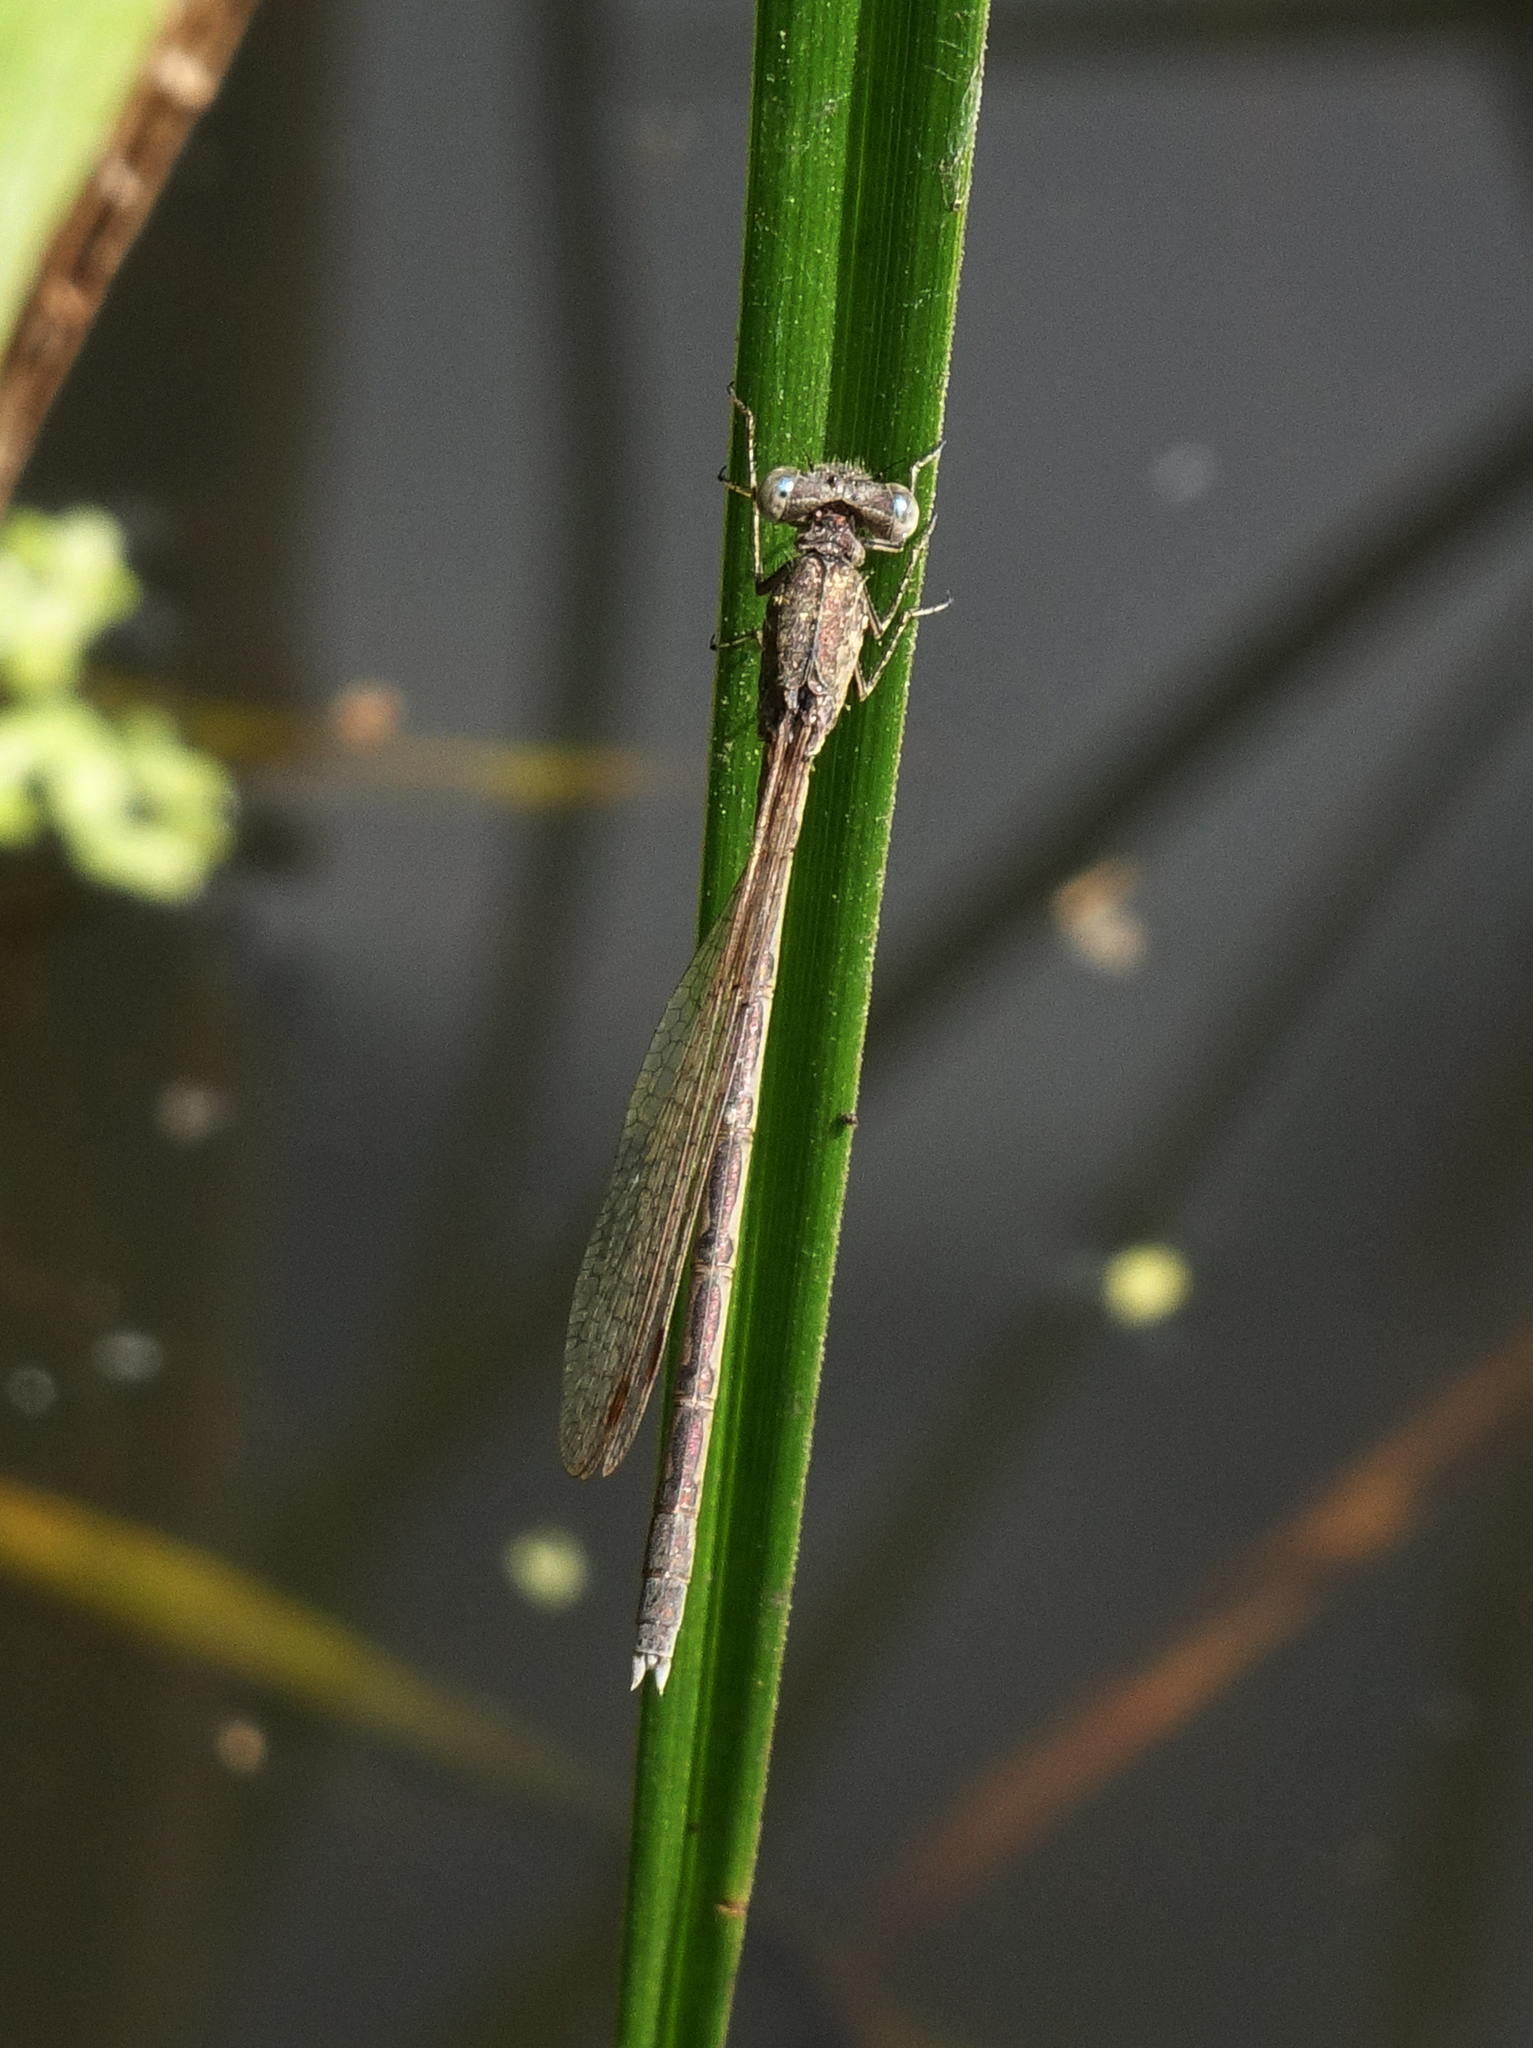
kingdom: Animalia
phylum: Arthropoda
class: Insecta
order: Odonata
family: Lestidae
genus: Sympecma
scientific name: Sympecma paedisca
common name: Siberian winter damsel
